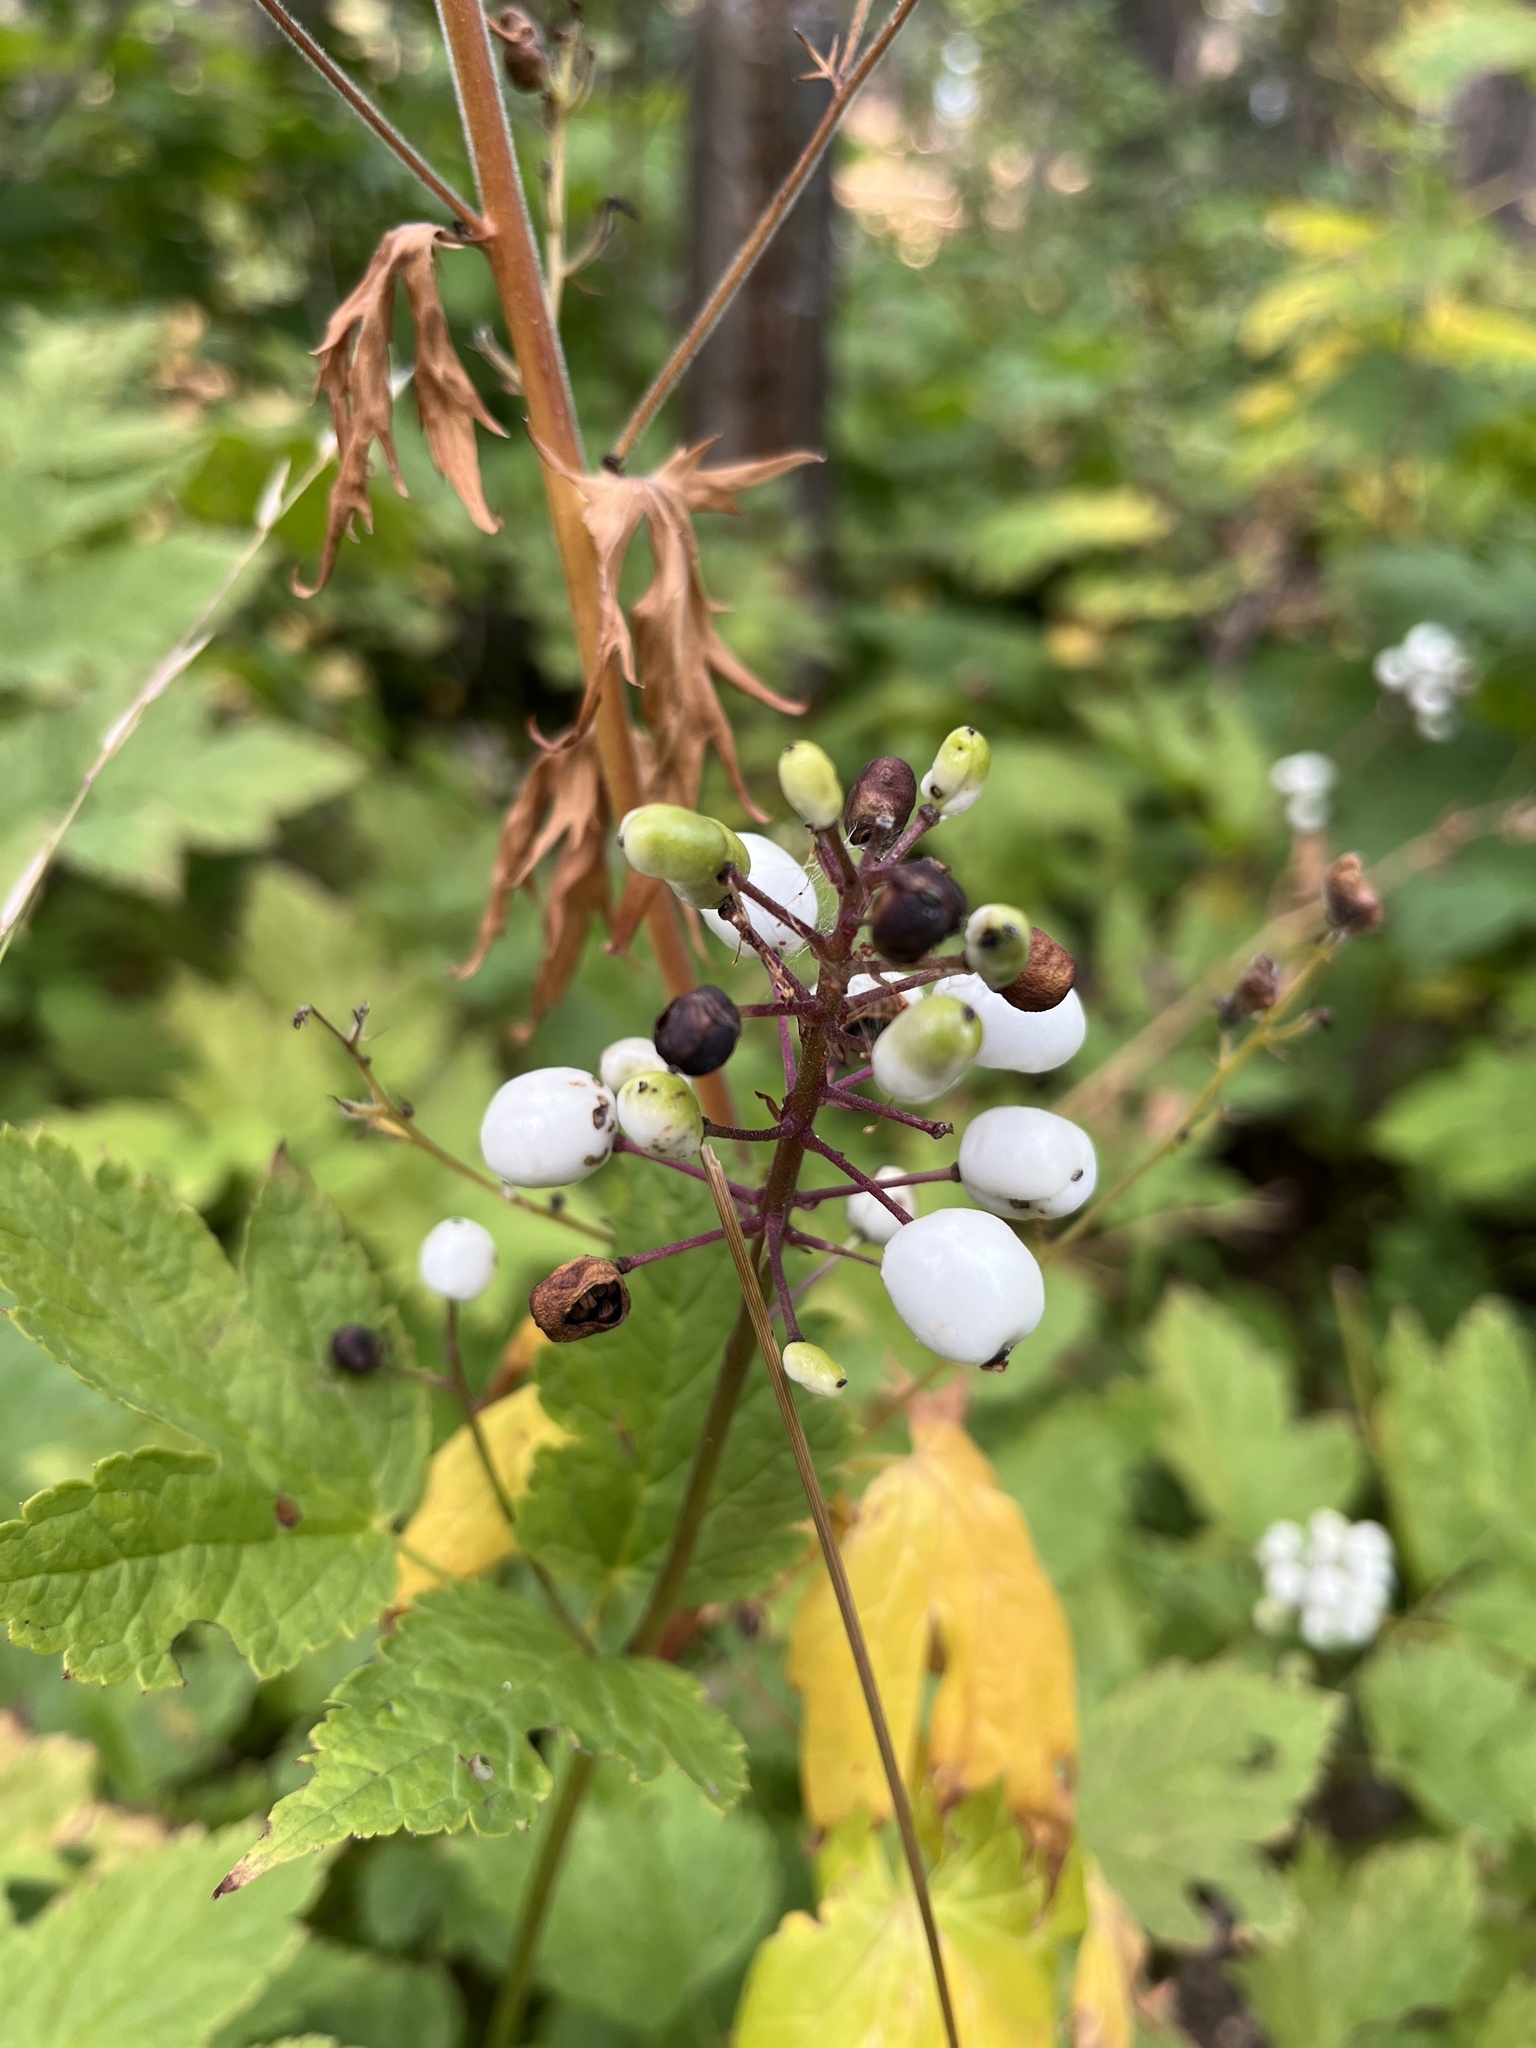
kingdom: Plantae
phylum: Tracheophyta
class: Magnoliopsida
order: Ranunculales
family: Ranunculaceae
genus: Actaea
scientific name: Actaea rubra
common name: Red baneberry
